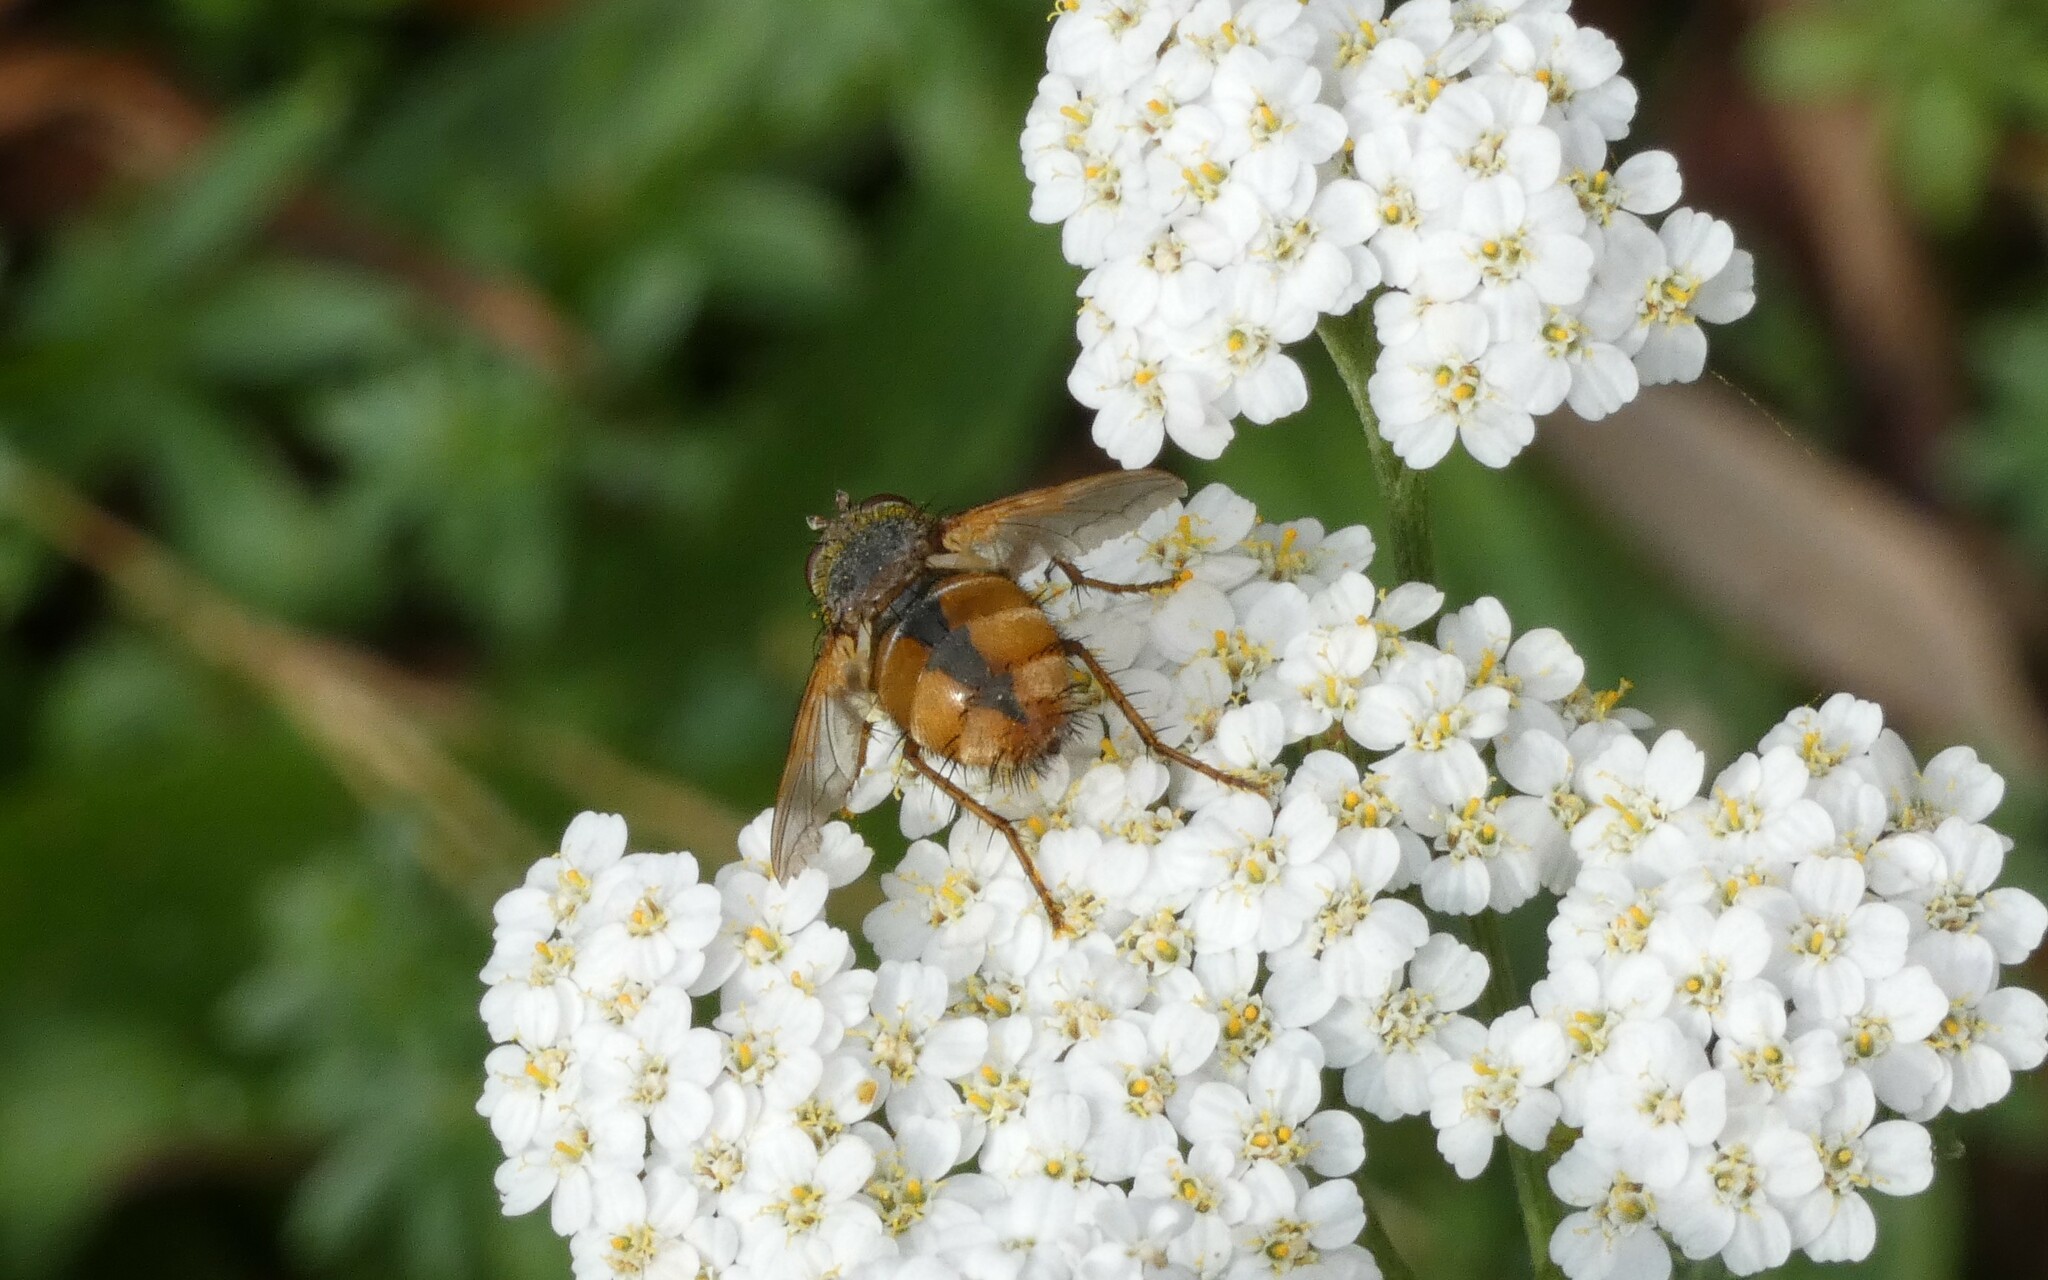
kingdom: Animalia
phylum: Arthropoda
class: Insecta
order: Diptera
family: Tachinidae
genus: Tachina
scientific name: Tachina fera
